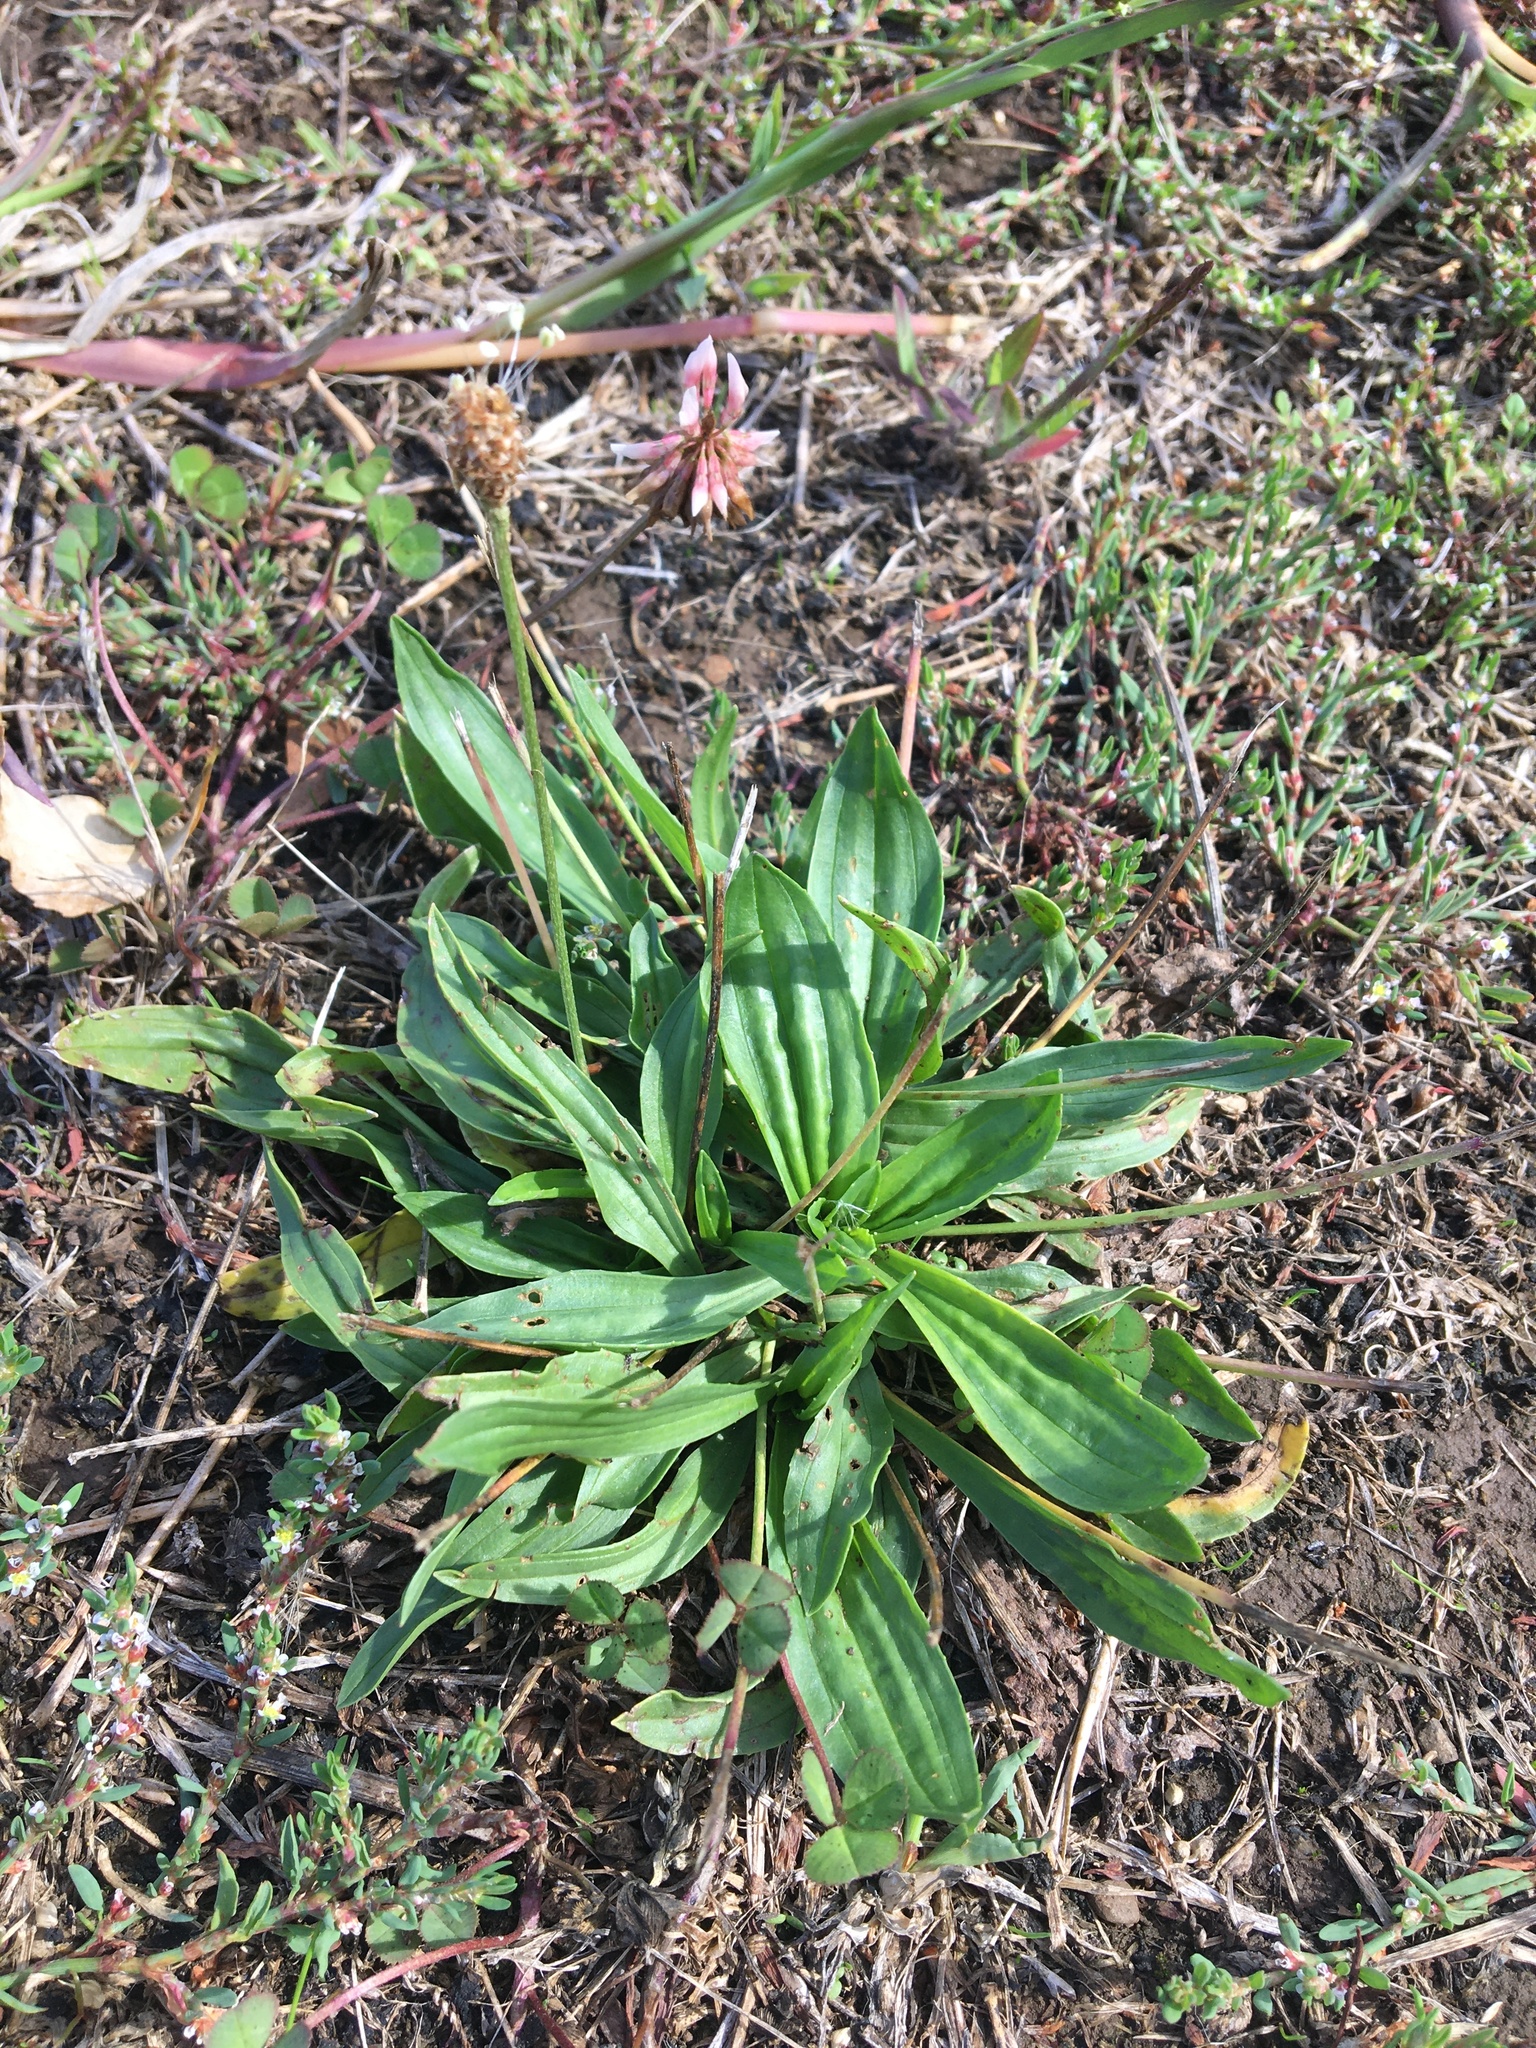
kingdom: Plantae
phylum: Tracheophyta
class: Magnoliopsida
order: Lamiales
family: Plantaginaceae
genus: Plantago
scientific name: Plantago lanceolata
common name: Ribwort plantain
